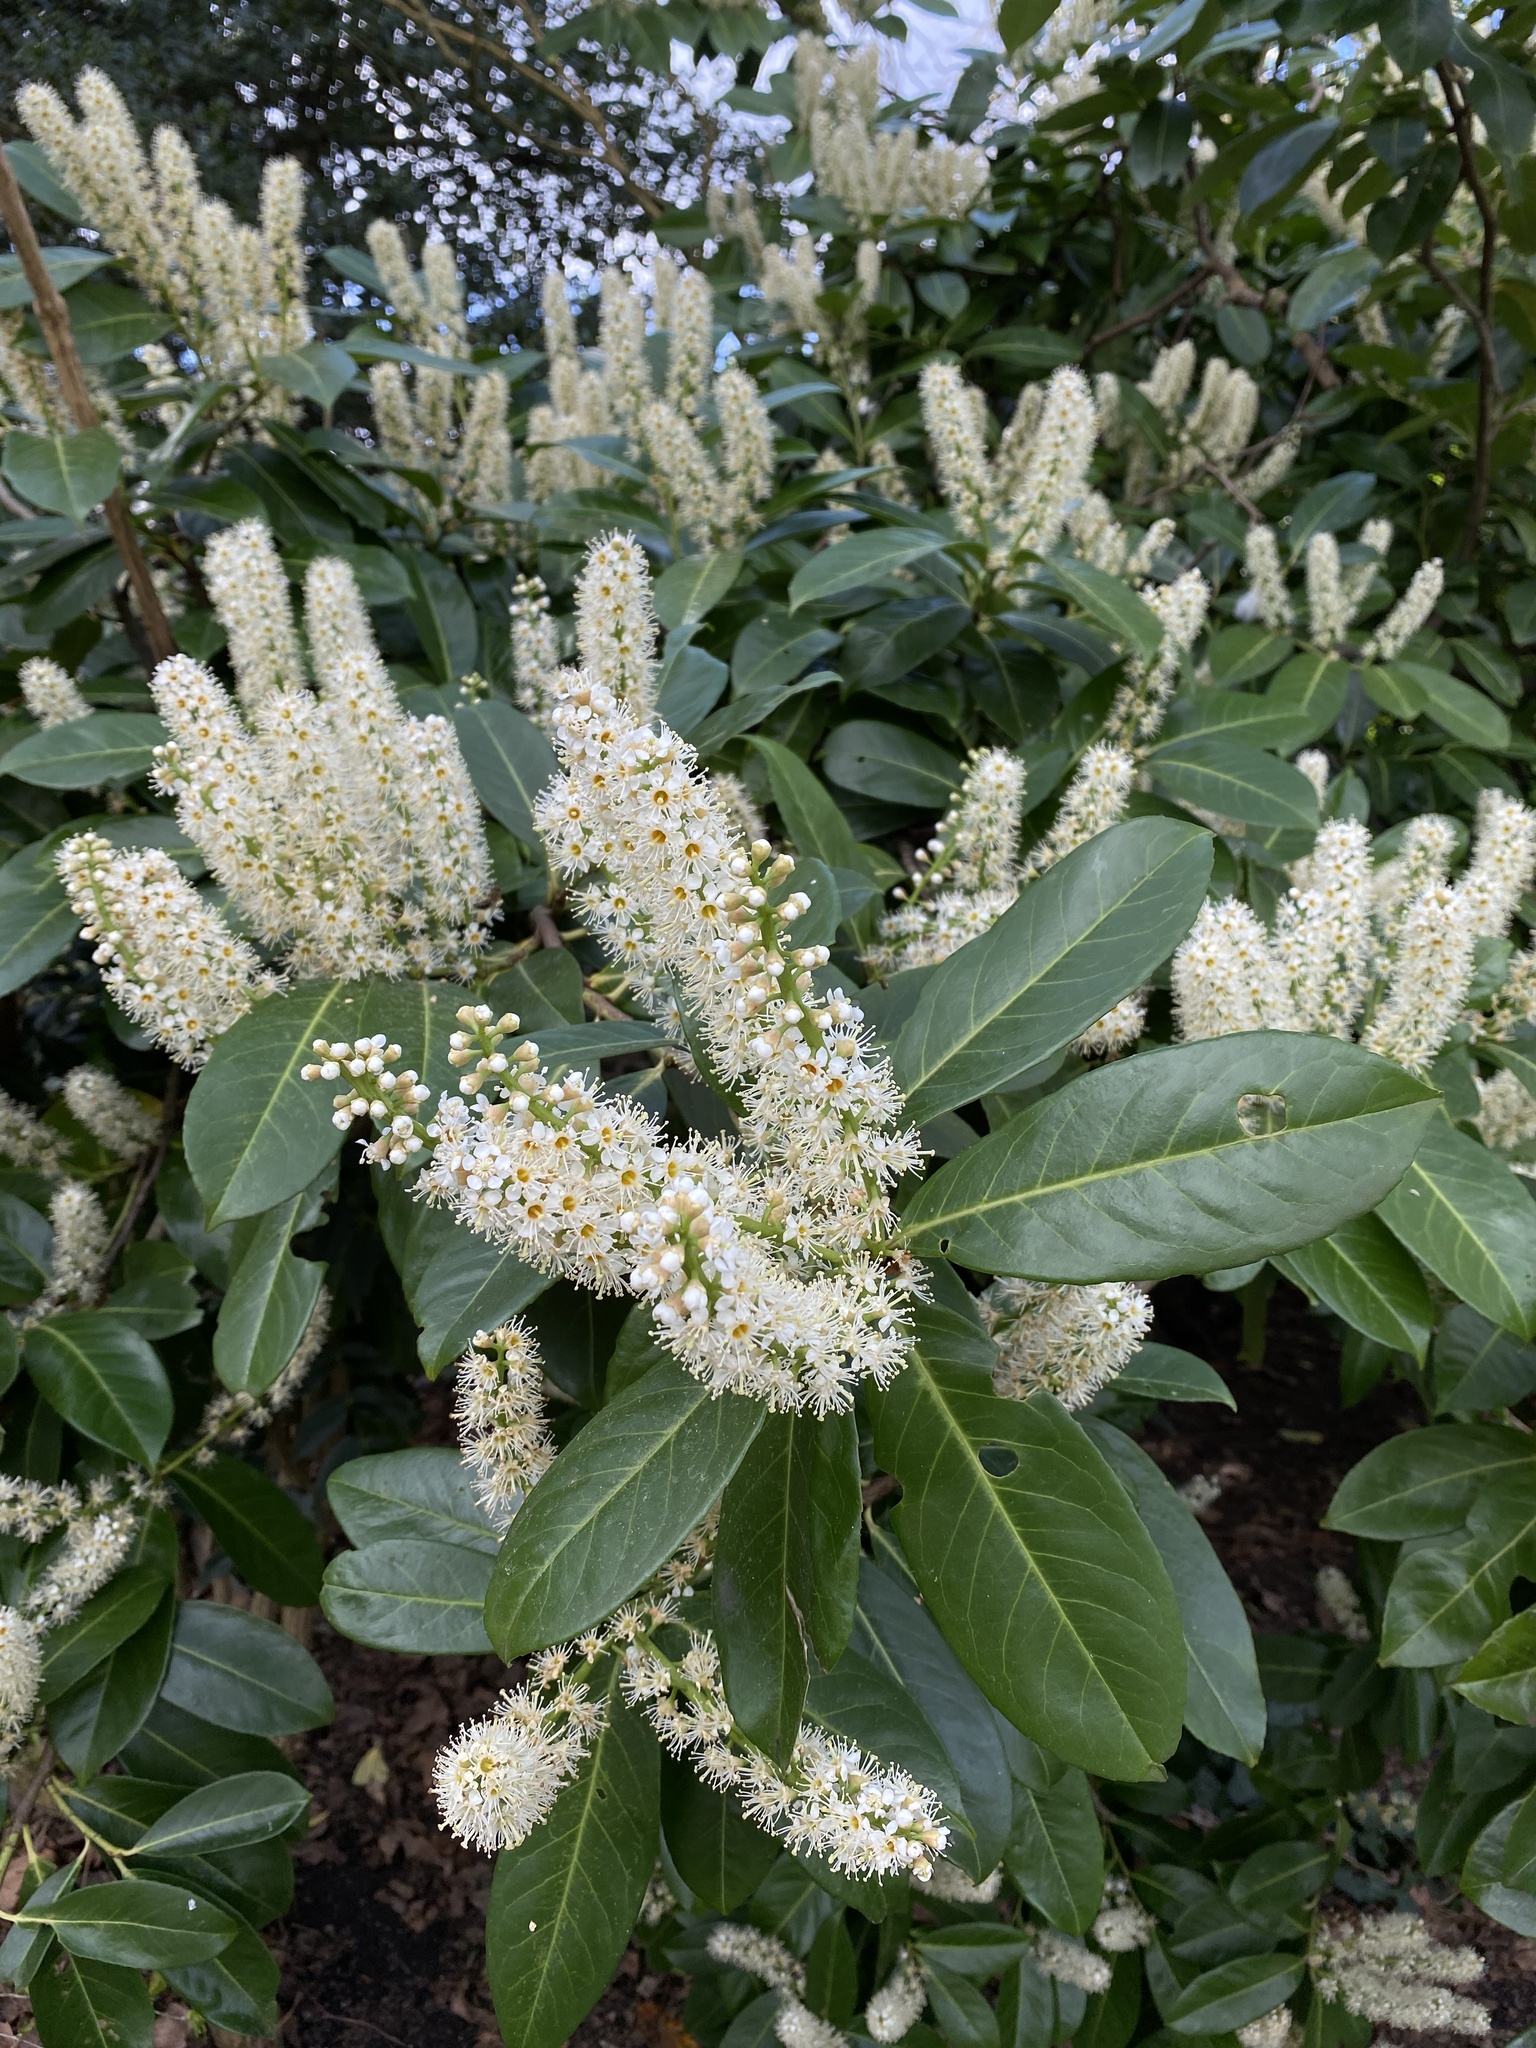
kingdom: Plantae
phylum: Tracheophyta
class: Magnoliopsida
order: Rosales
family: Rosaceae
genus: Prunus
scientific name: Prunus laurocerasus
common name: Cherry laurel
